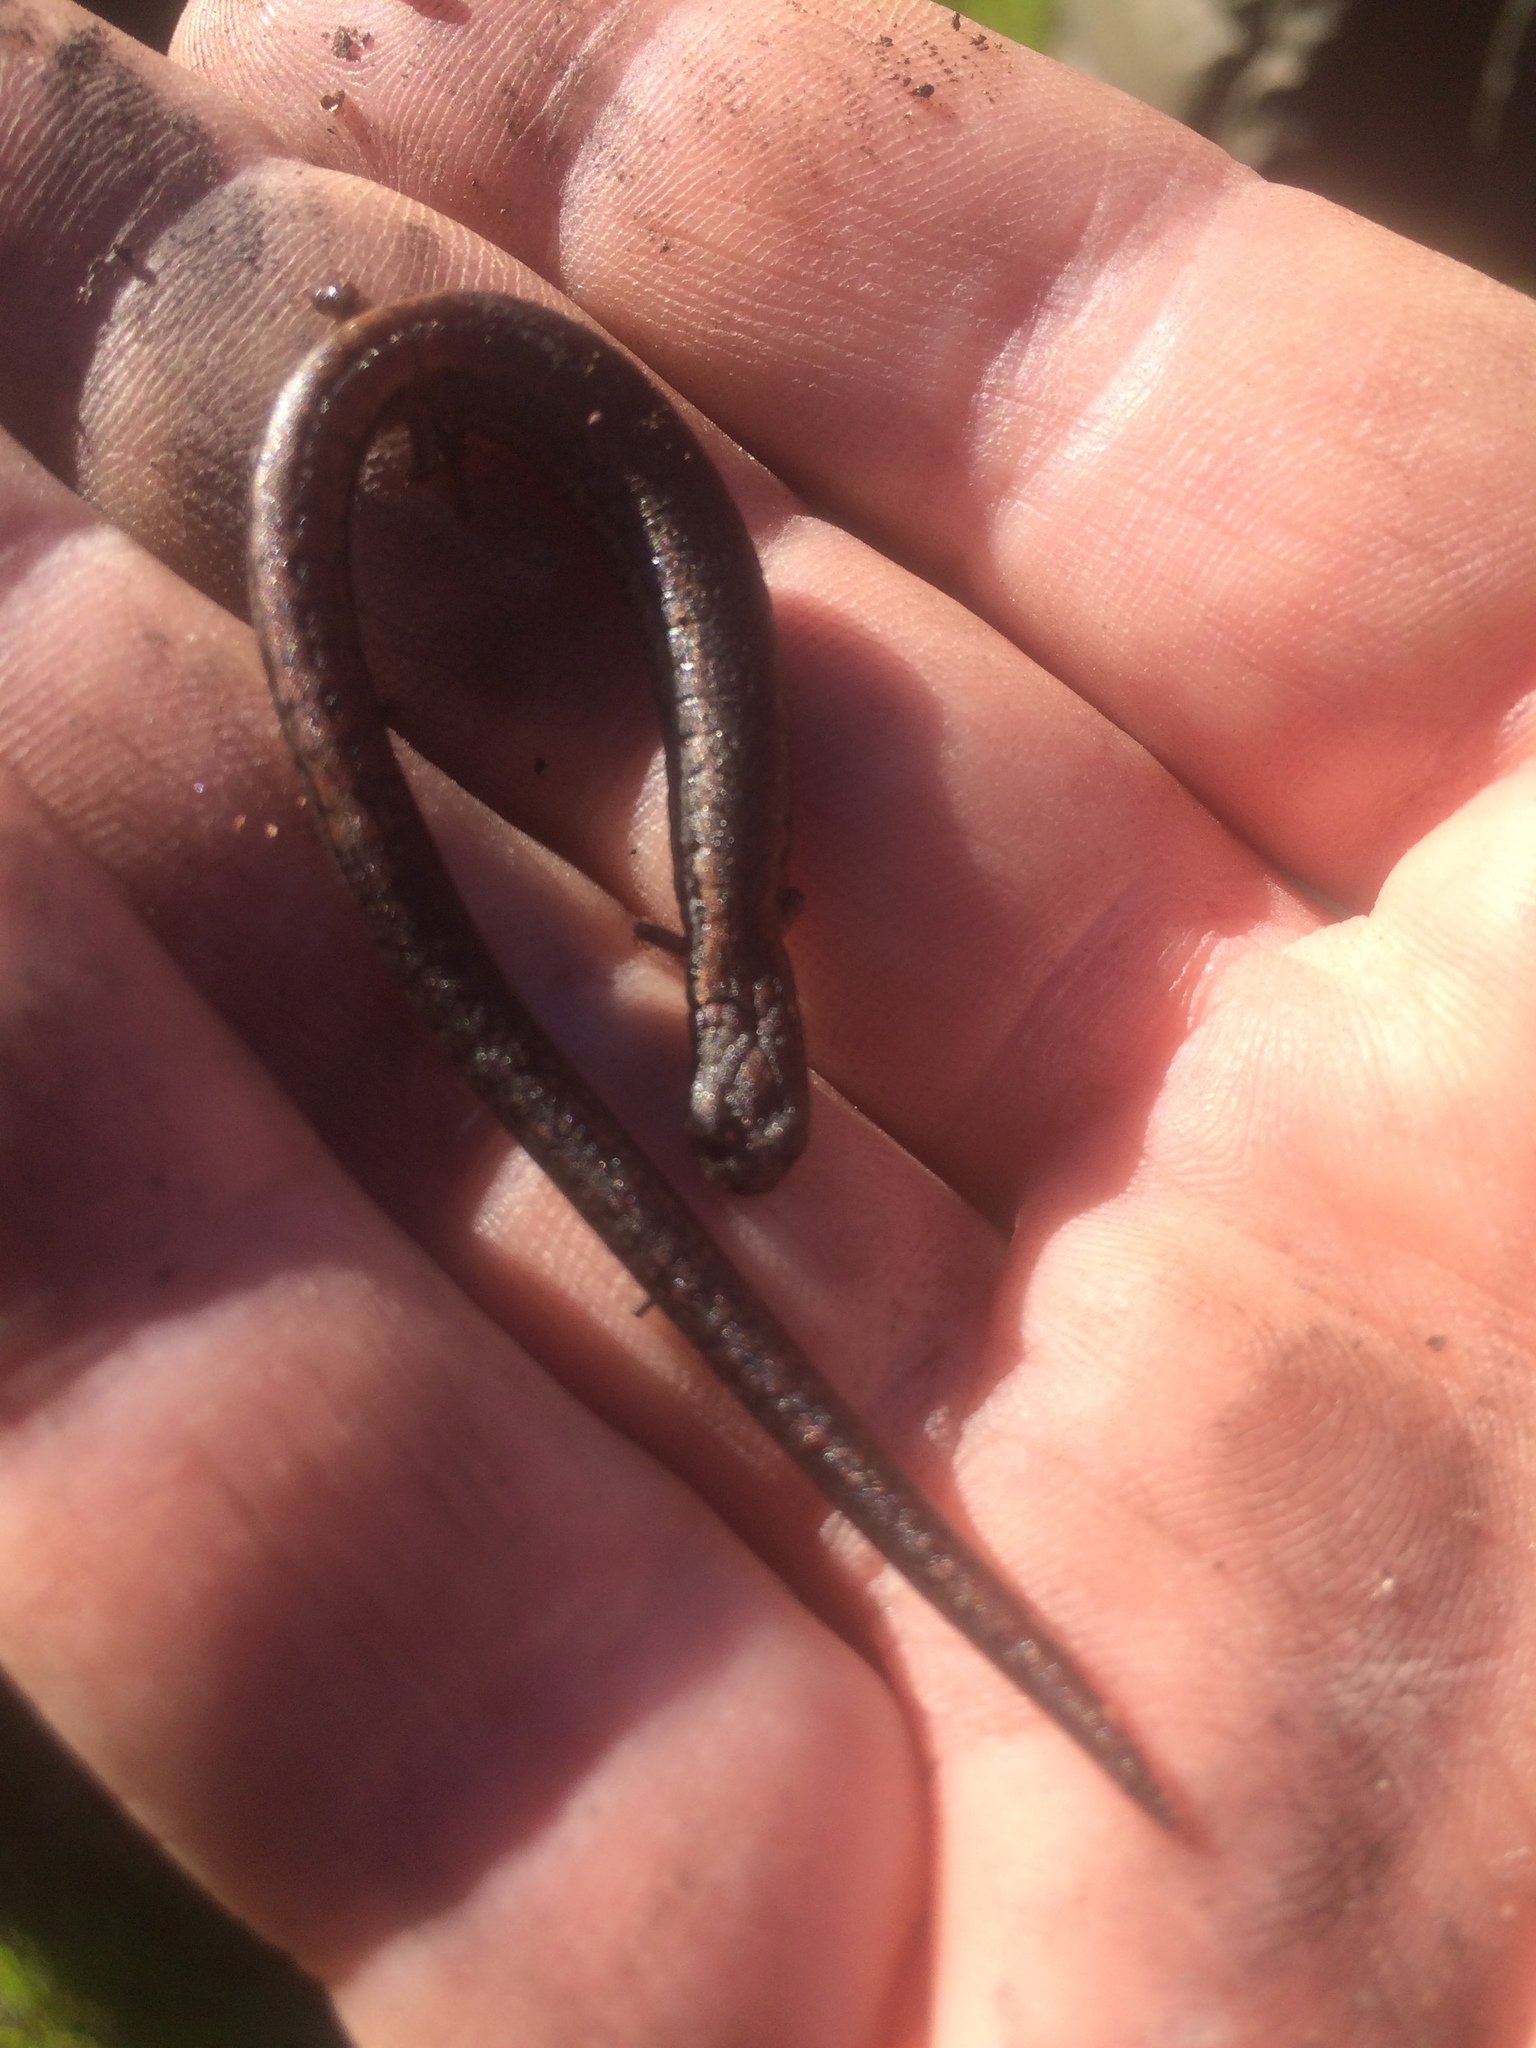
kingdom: Animalia
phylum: Chordata
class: Amphibia
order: Caudata
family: Plethodontidae
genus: Batrachoseps
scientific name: Batrachoseps attenuatus
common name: California slender salamander
